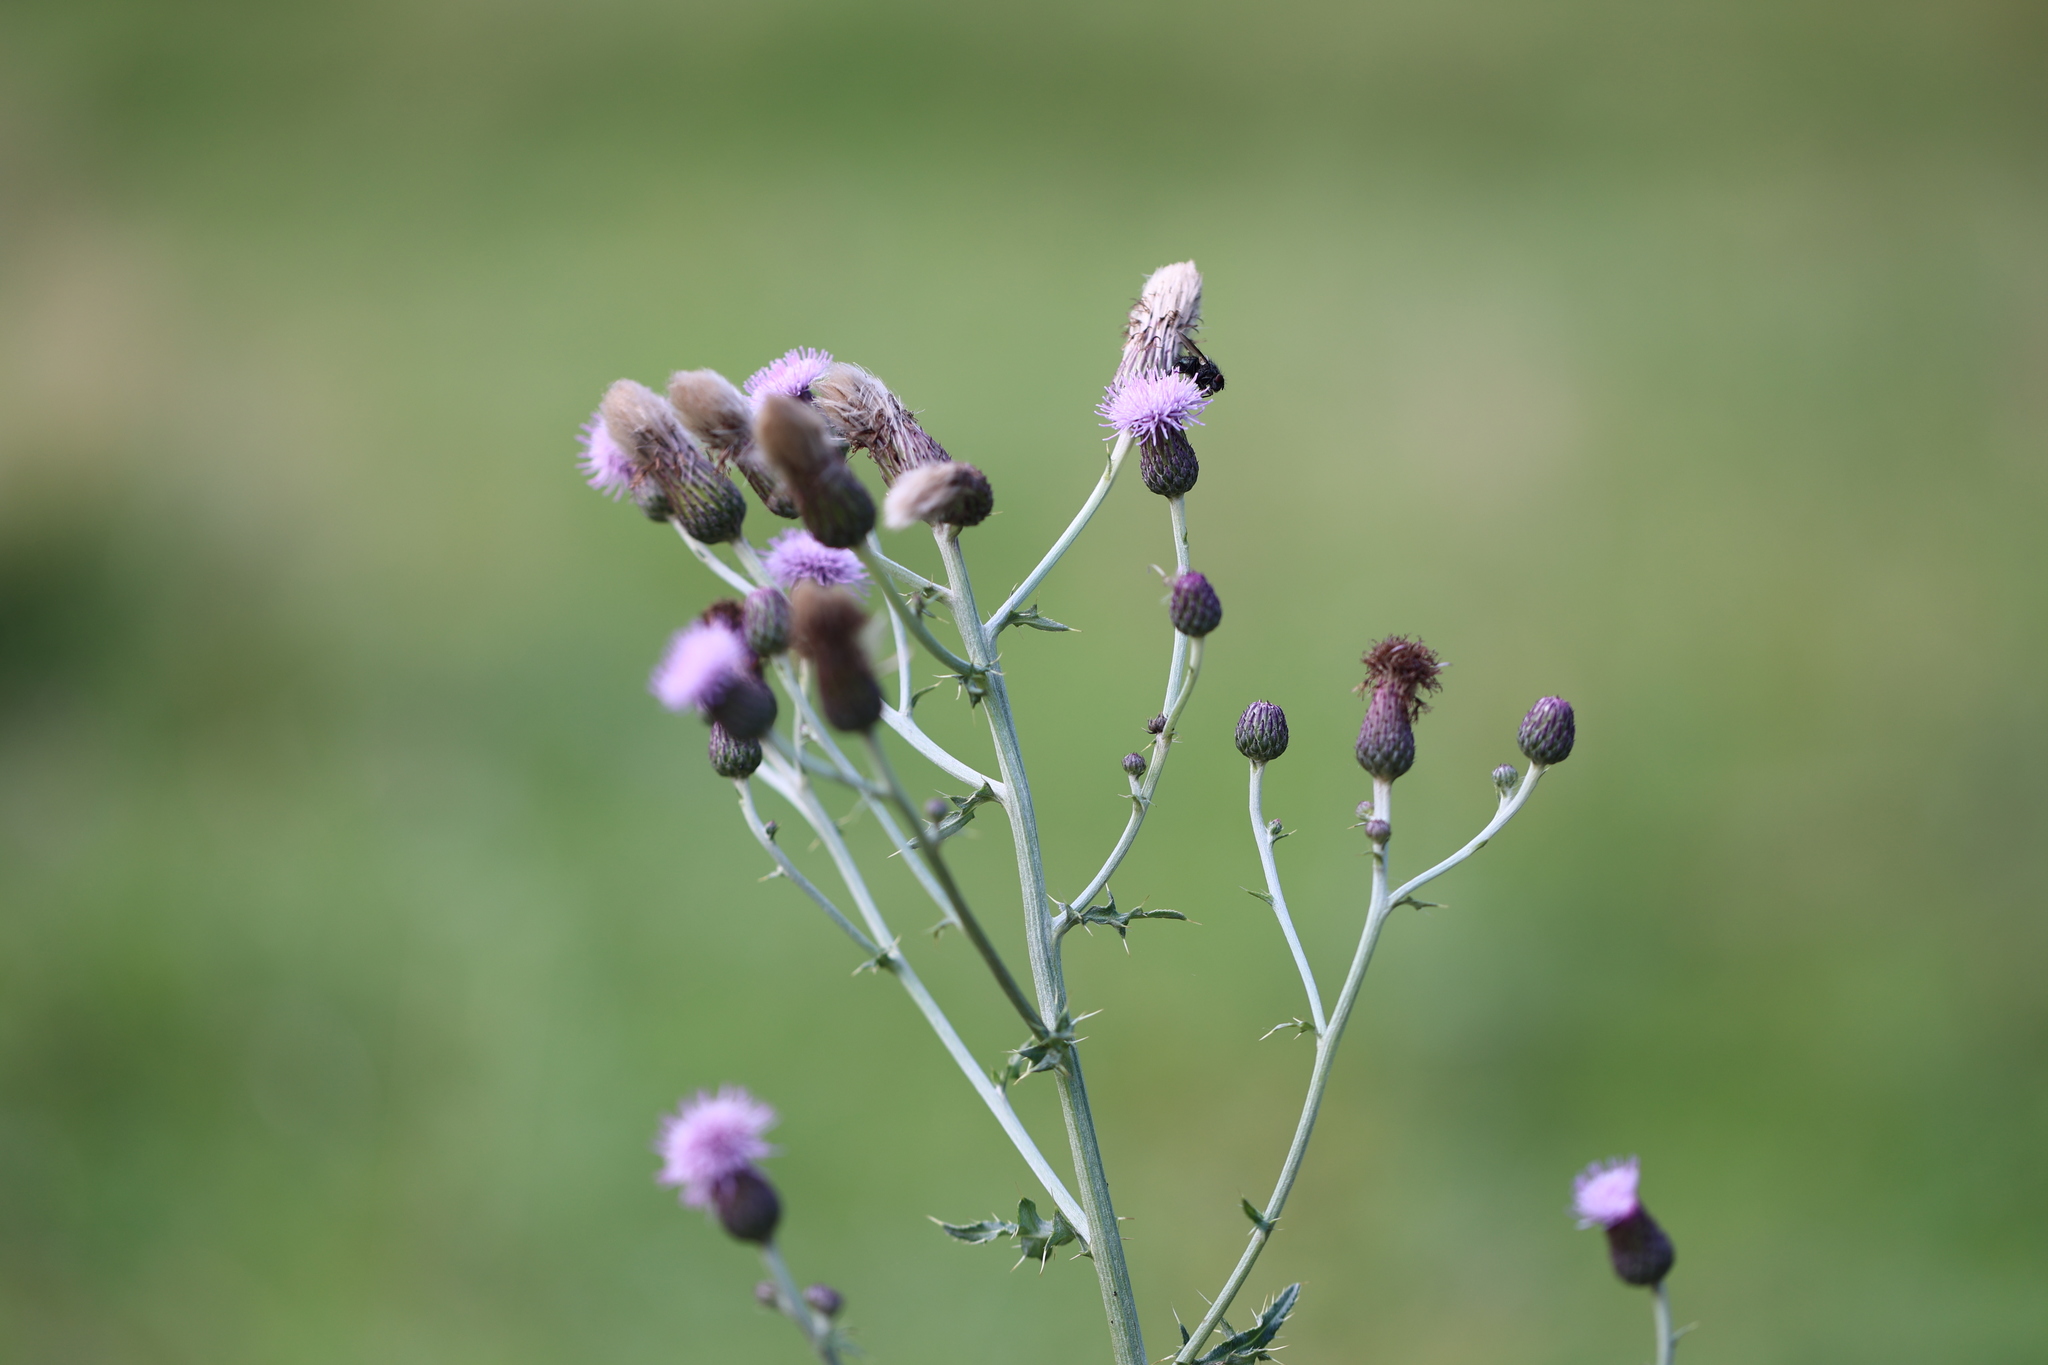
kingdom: Plantae
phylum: Tracheophyta
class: Magnoliopsida
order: Asterales
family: Asteraceae
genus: Cirsium
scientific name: Cirsium arvense
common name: Creeping thistle
